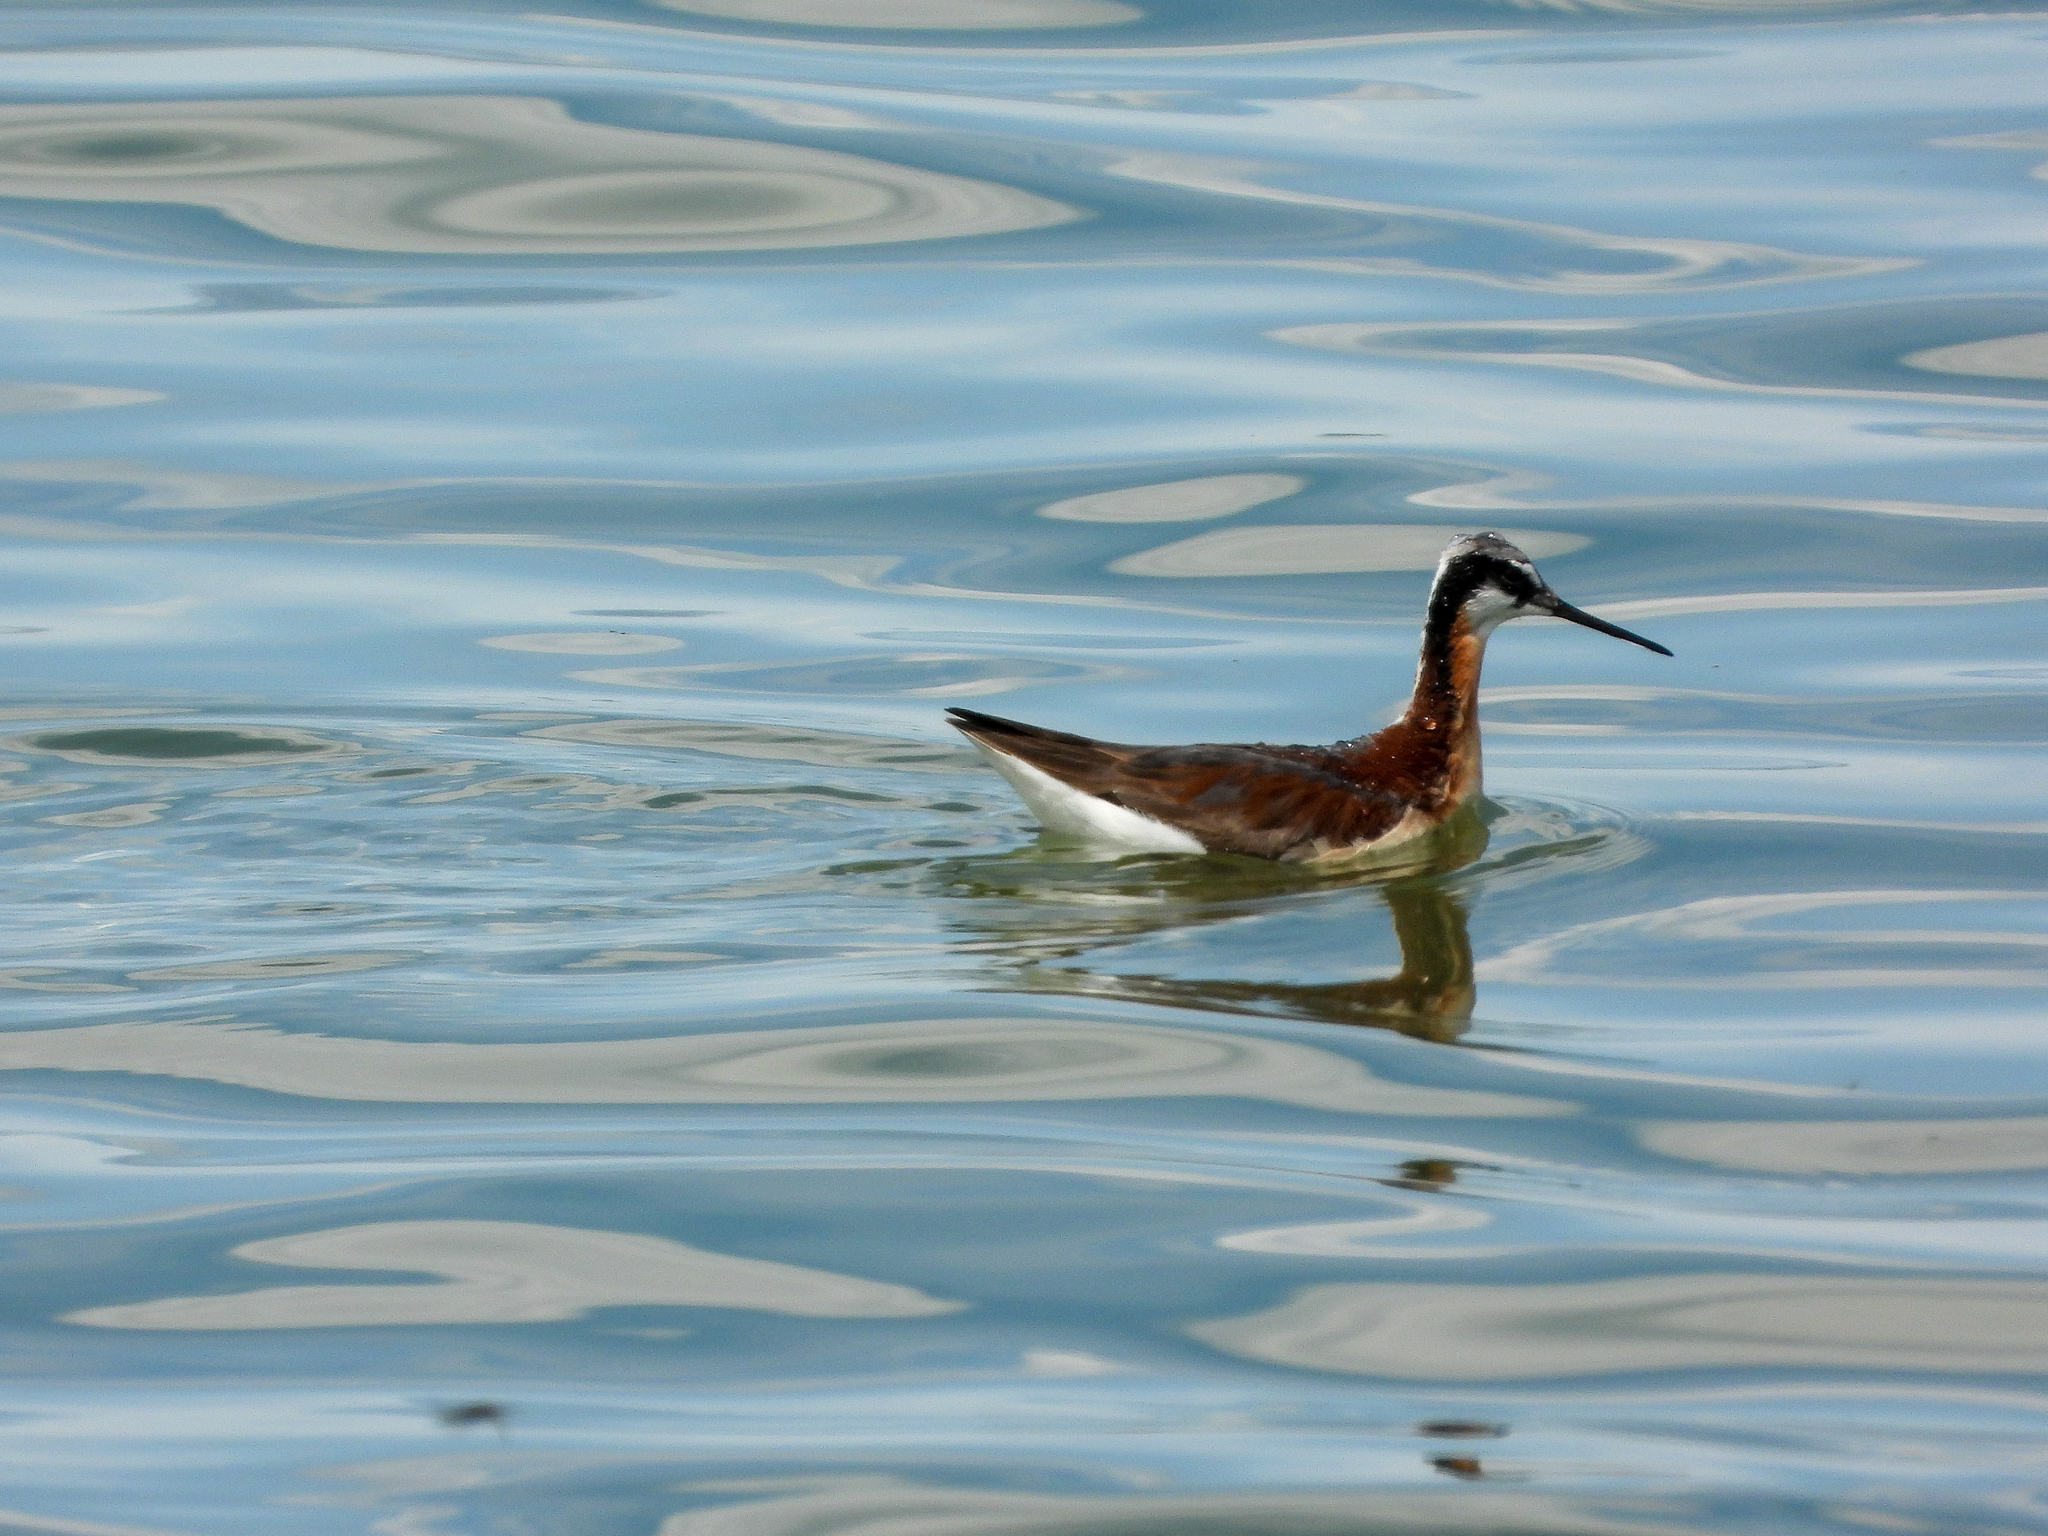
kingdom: Animalia
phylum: Chordata
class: Aves
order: Charadriiformes
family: Scolopacidae
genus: Phalaropus
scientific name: Phalaropus tricolor
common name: Wilson's phalarope
